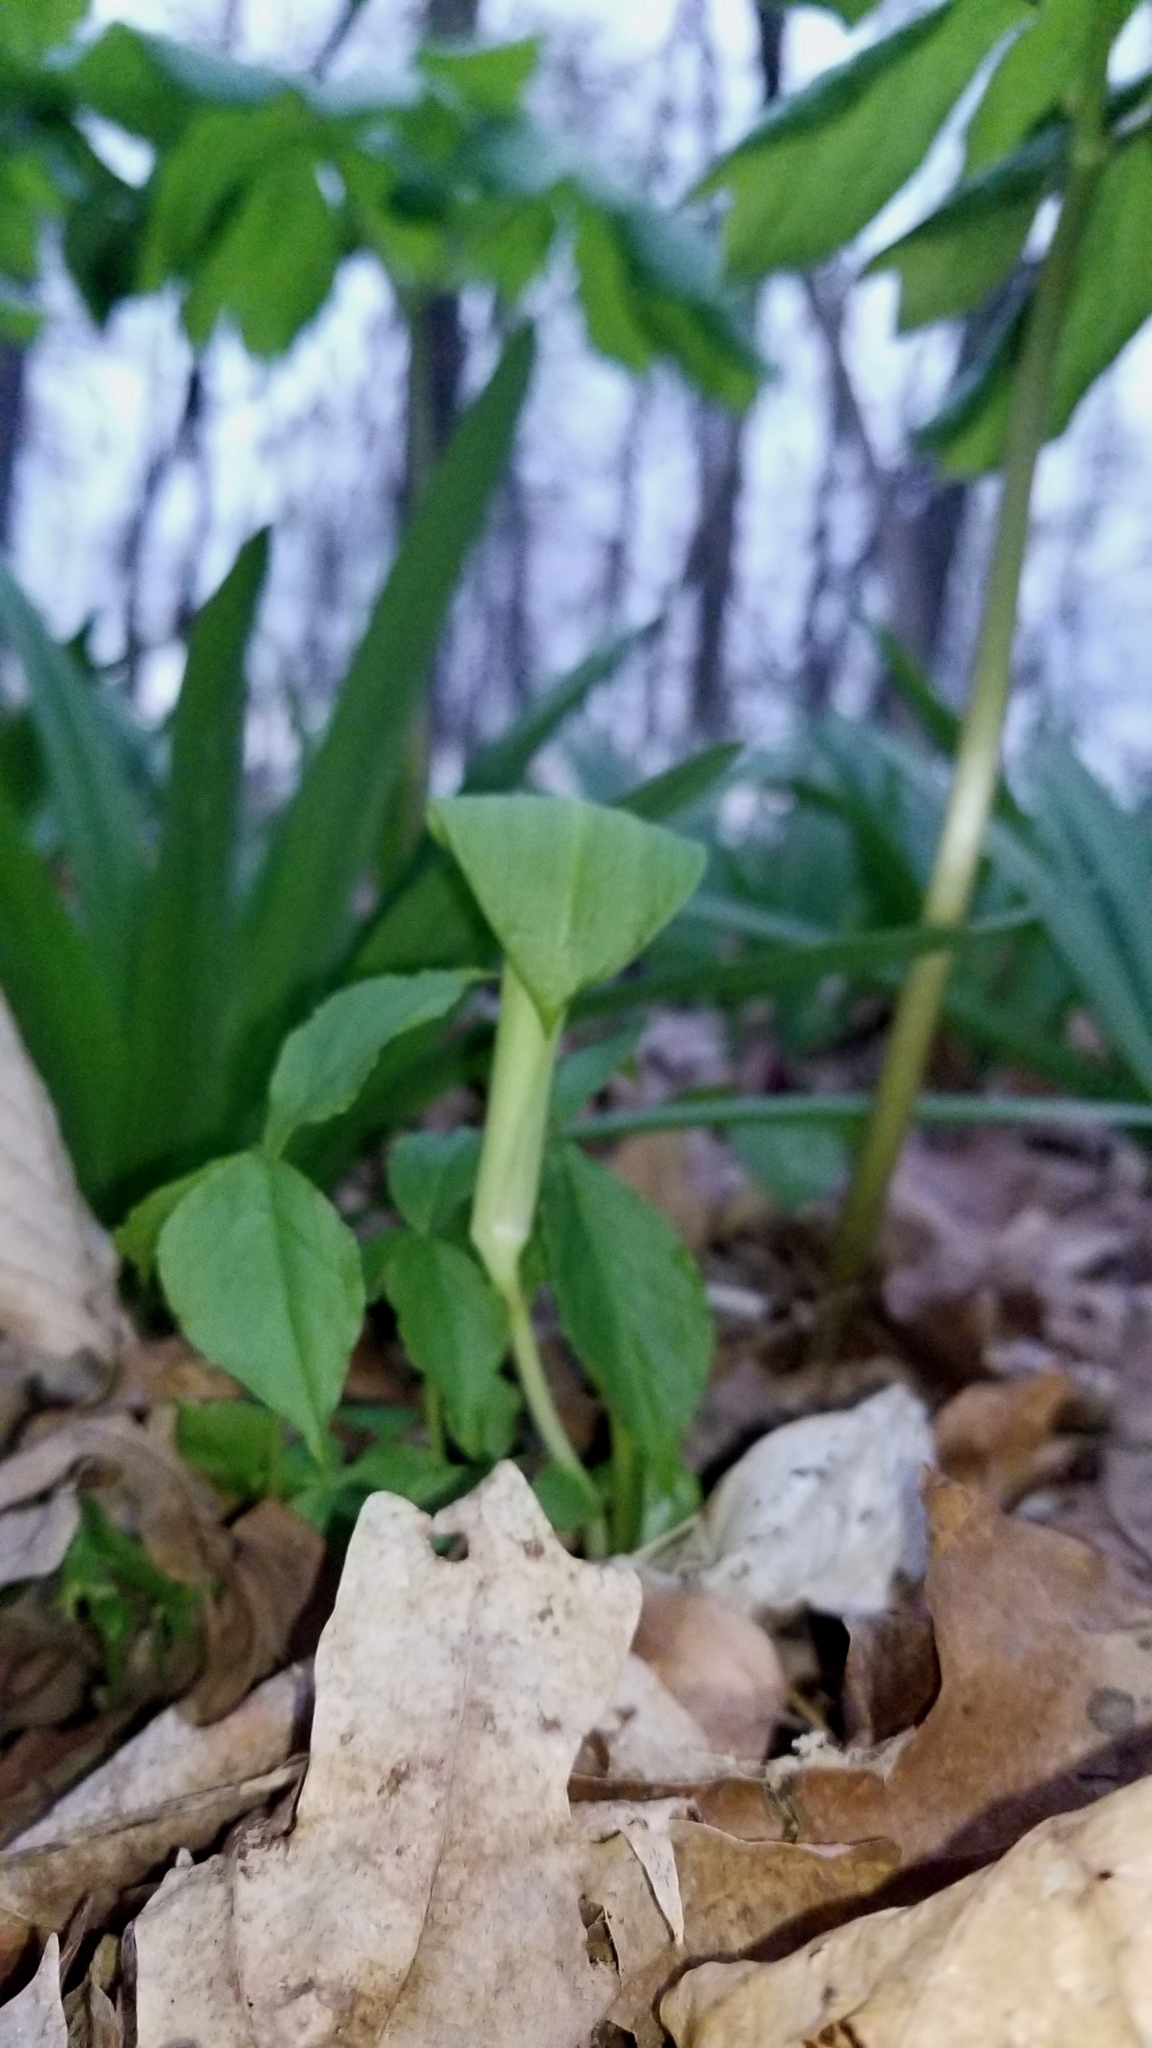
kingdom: Plantae
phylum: Tracheophyta
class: Liliopsida
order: Alismatales
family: Araceae
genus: Arisaema
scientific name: Arisaema triphyllum
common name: Jack-in-the-pulpit
